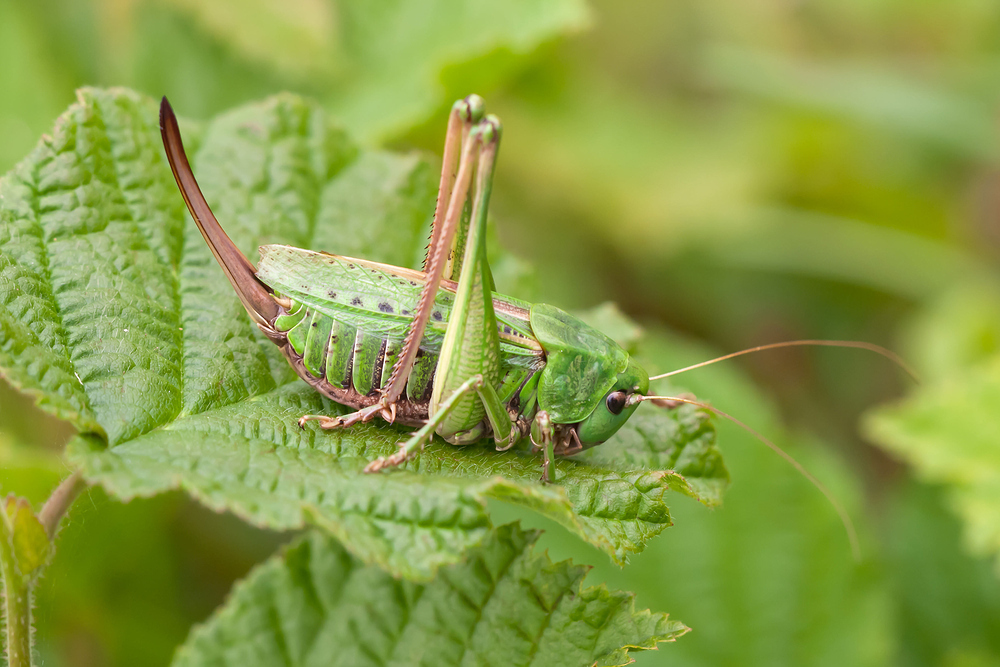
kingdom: Animalia
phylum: Arthropoda
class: Insecta
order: Orthoptera
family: Tettigoniidae
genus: Decticus
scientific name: Decticus verrucivorus
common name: Wart-biter
